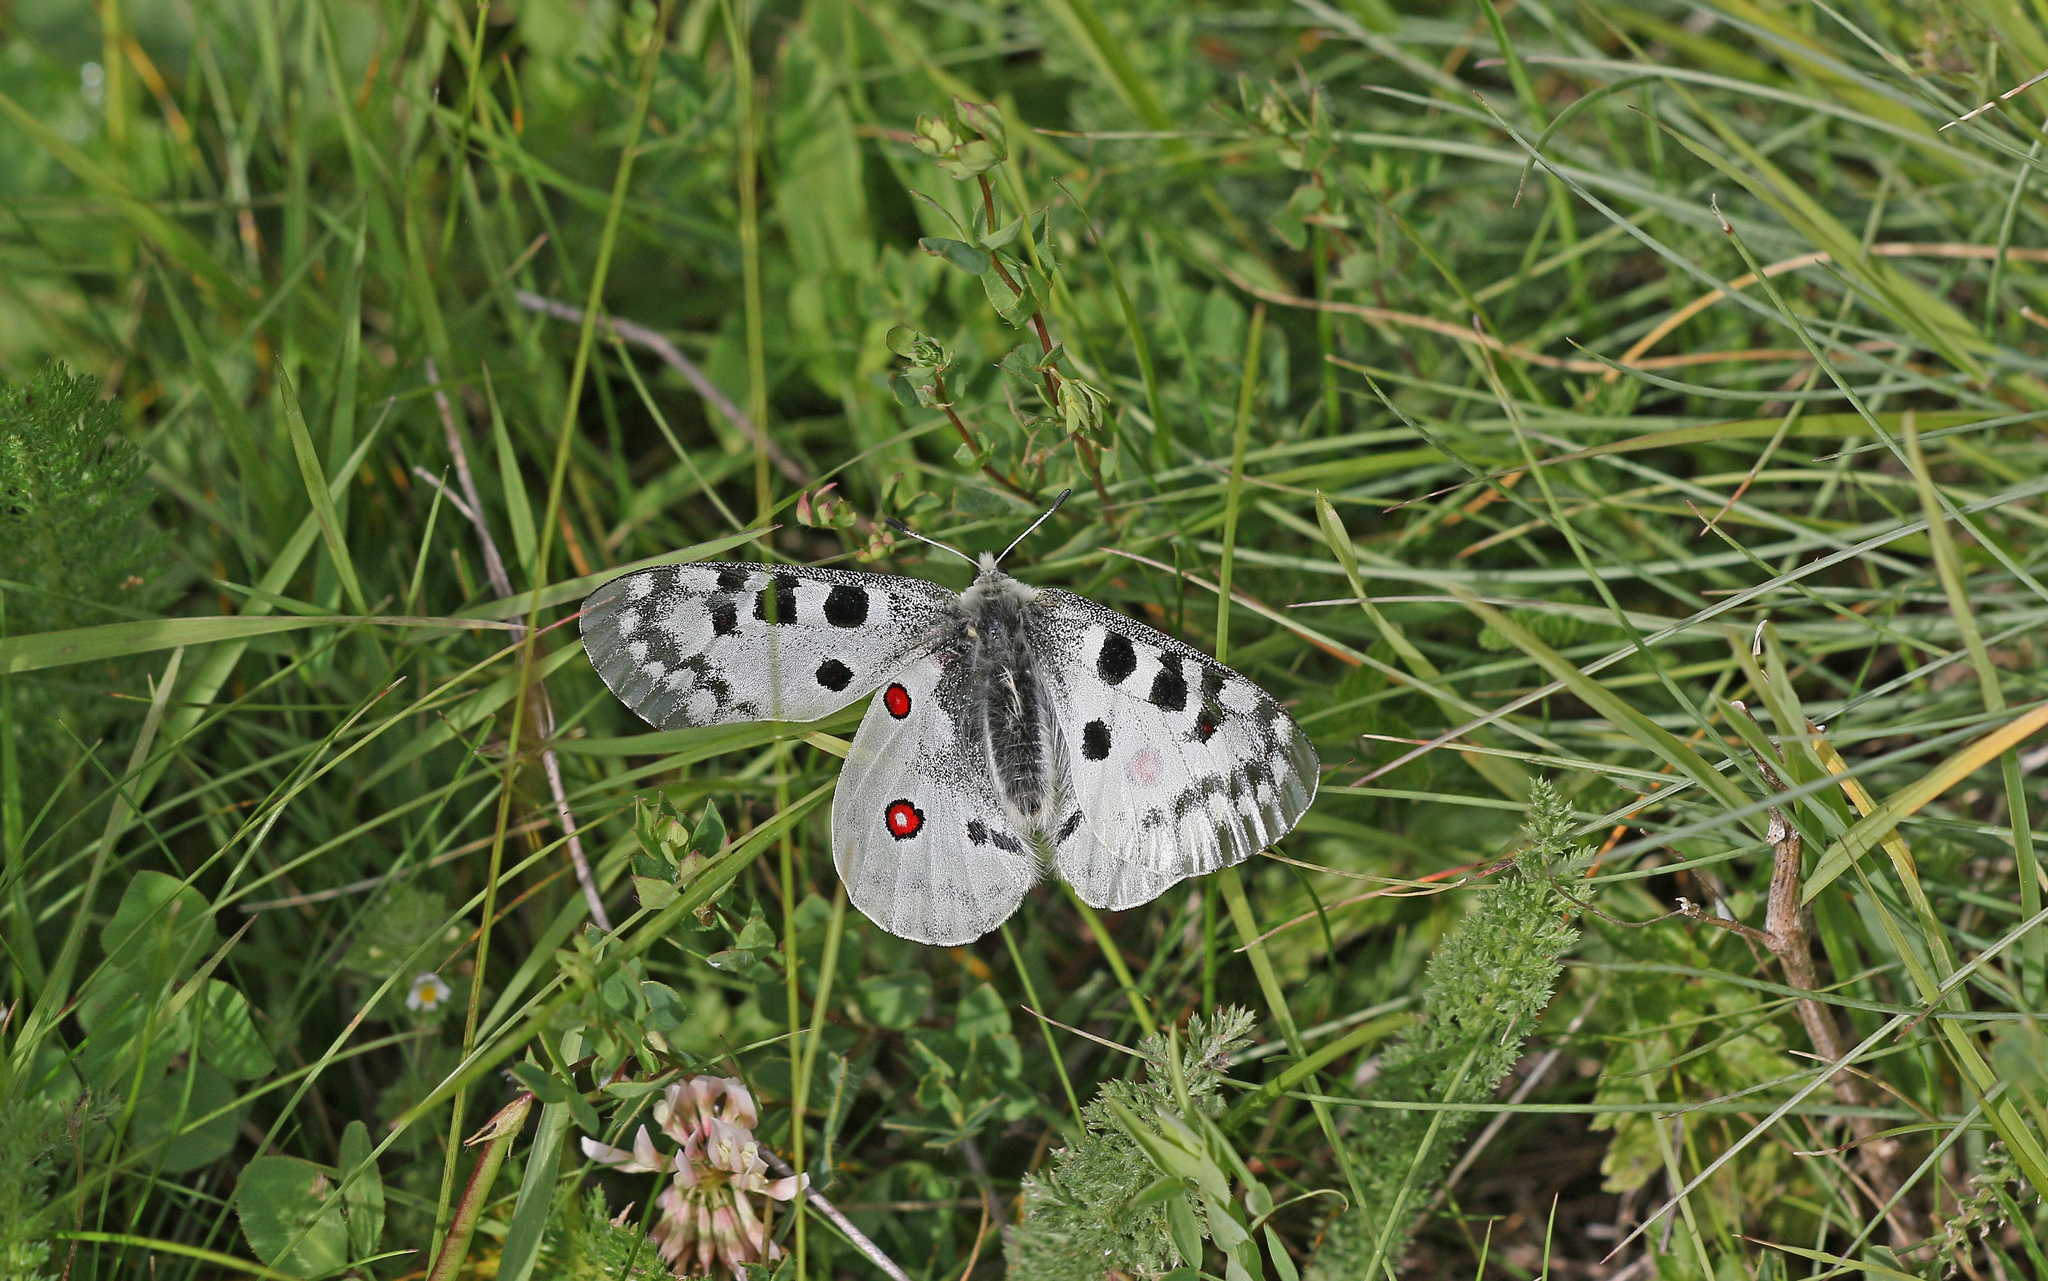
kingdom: Animalia
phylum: Arthropoda
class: Insecta
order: Lepidoptera
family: Papilionidae
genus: Parnassius
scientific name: Parnassius apollo
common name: Apollo
